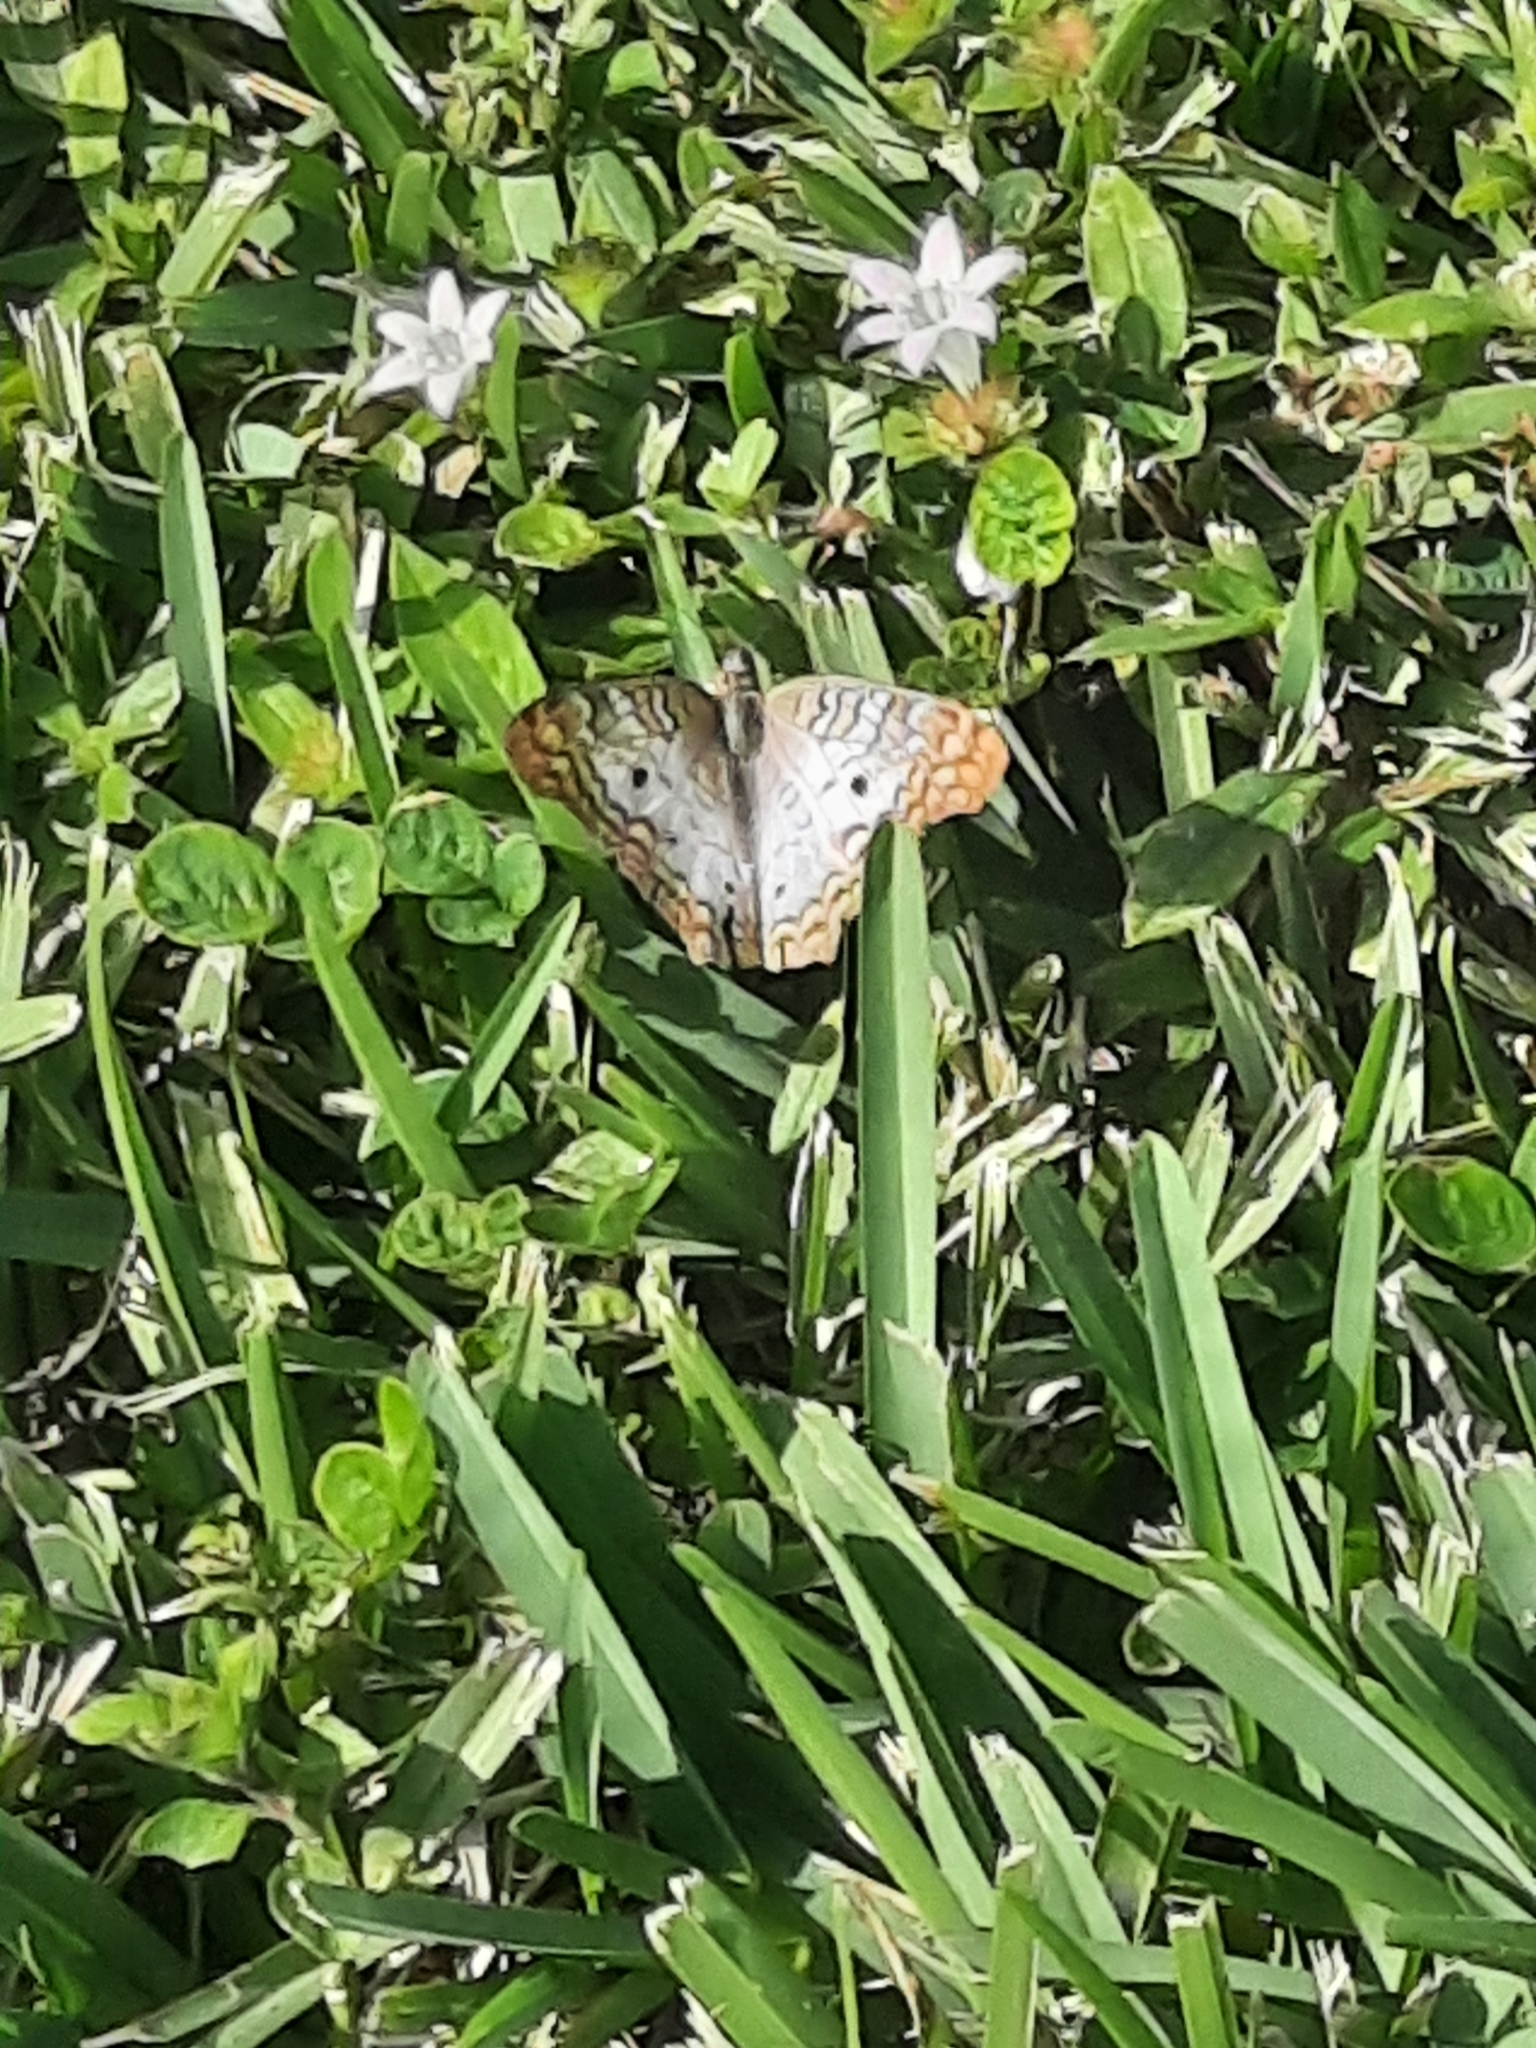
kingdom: Animalia
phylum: Arthropoda
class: Insecta
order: Lepidoptera
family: Nymphalidae
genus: Anartia
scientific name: Anartia jatrophae
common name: White peacock
